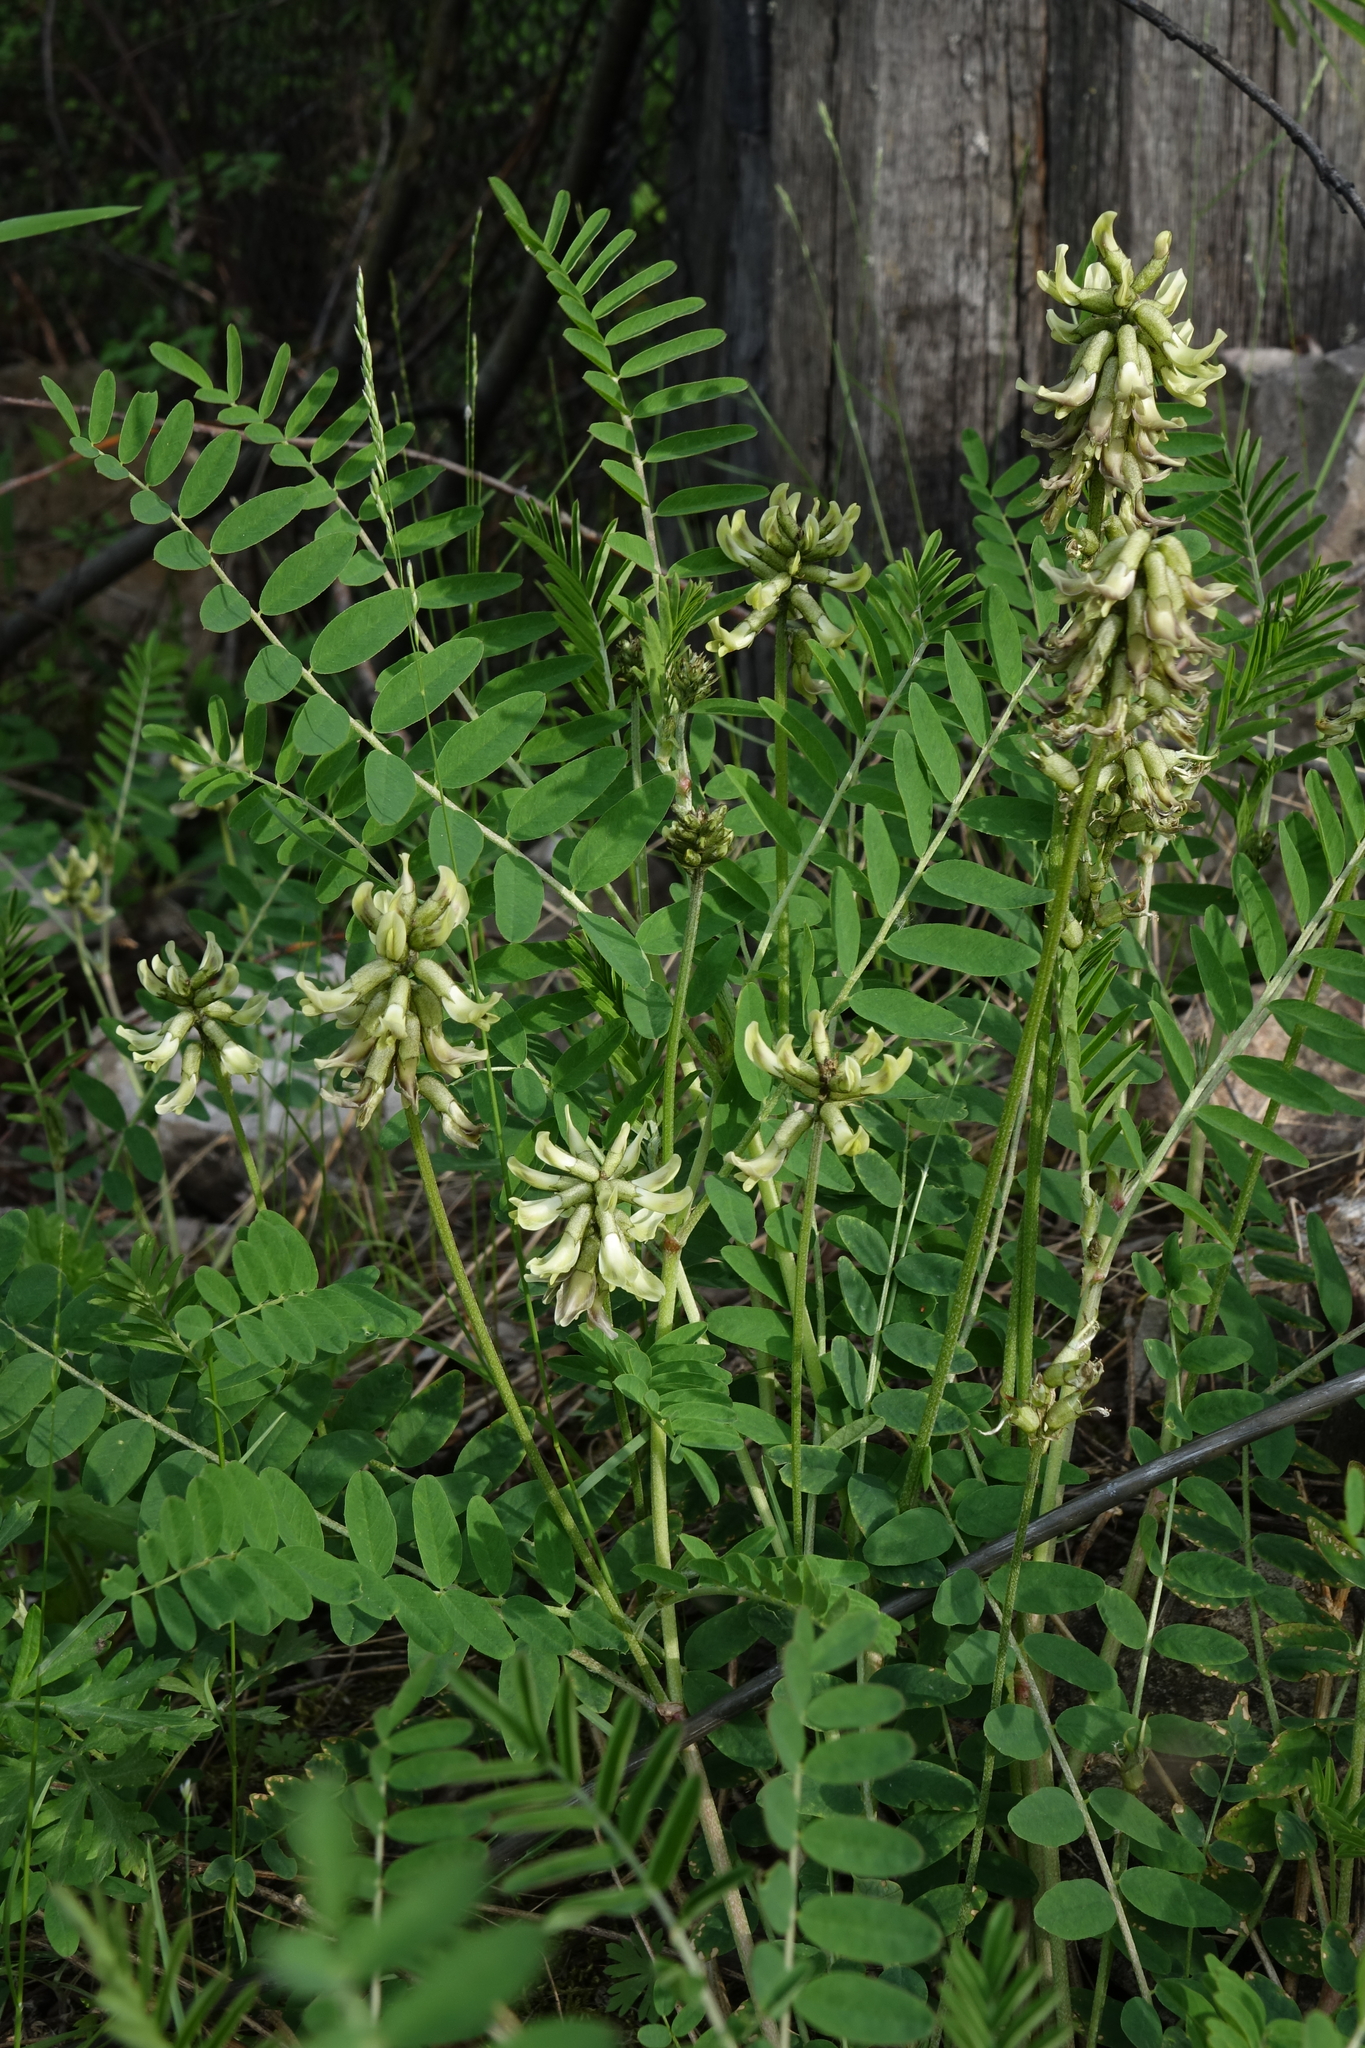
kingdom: Plantae
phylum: Tracheophyta
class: Magnoliopsida
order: Fabales
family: Fabaceae
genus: Astragalus
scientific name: Astragalus schelichowii
